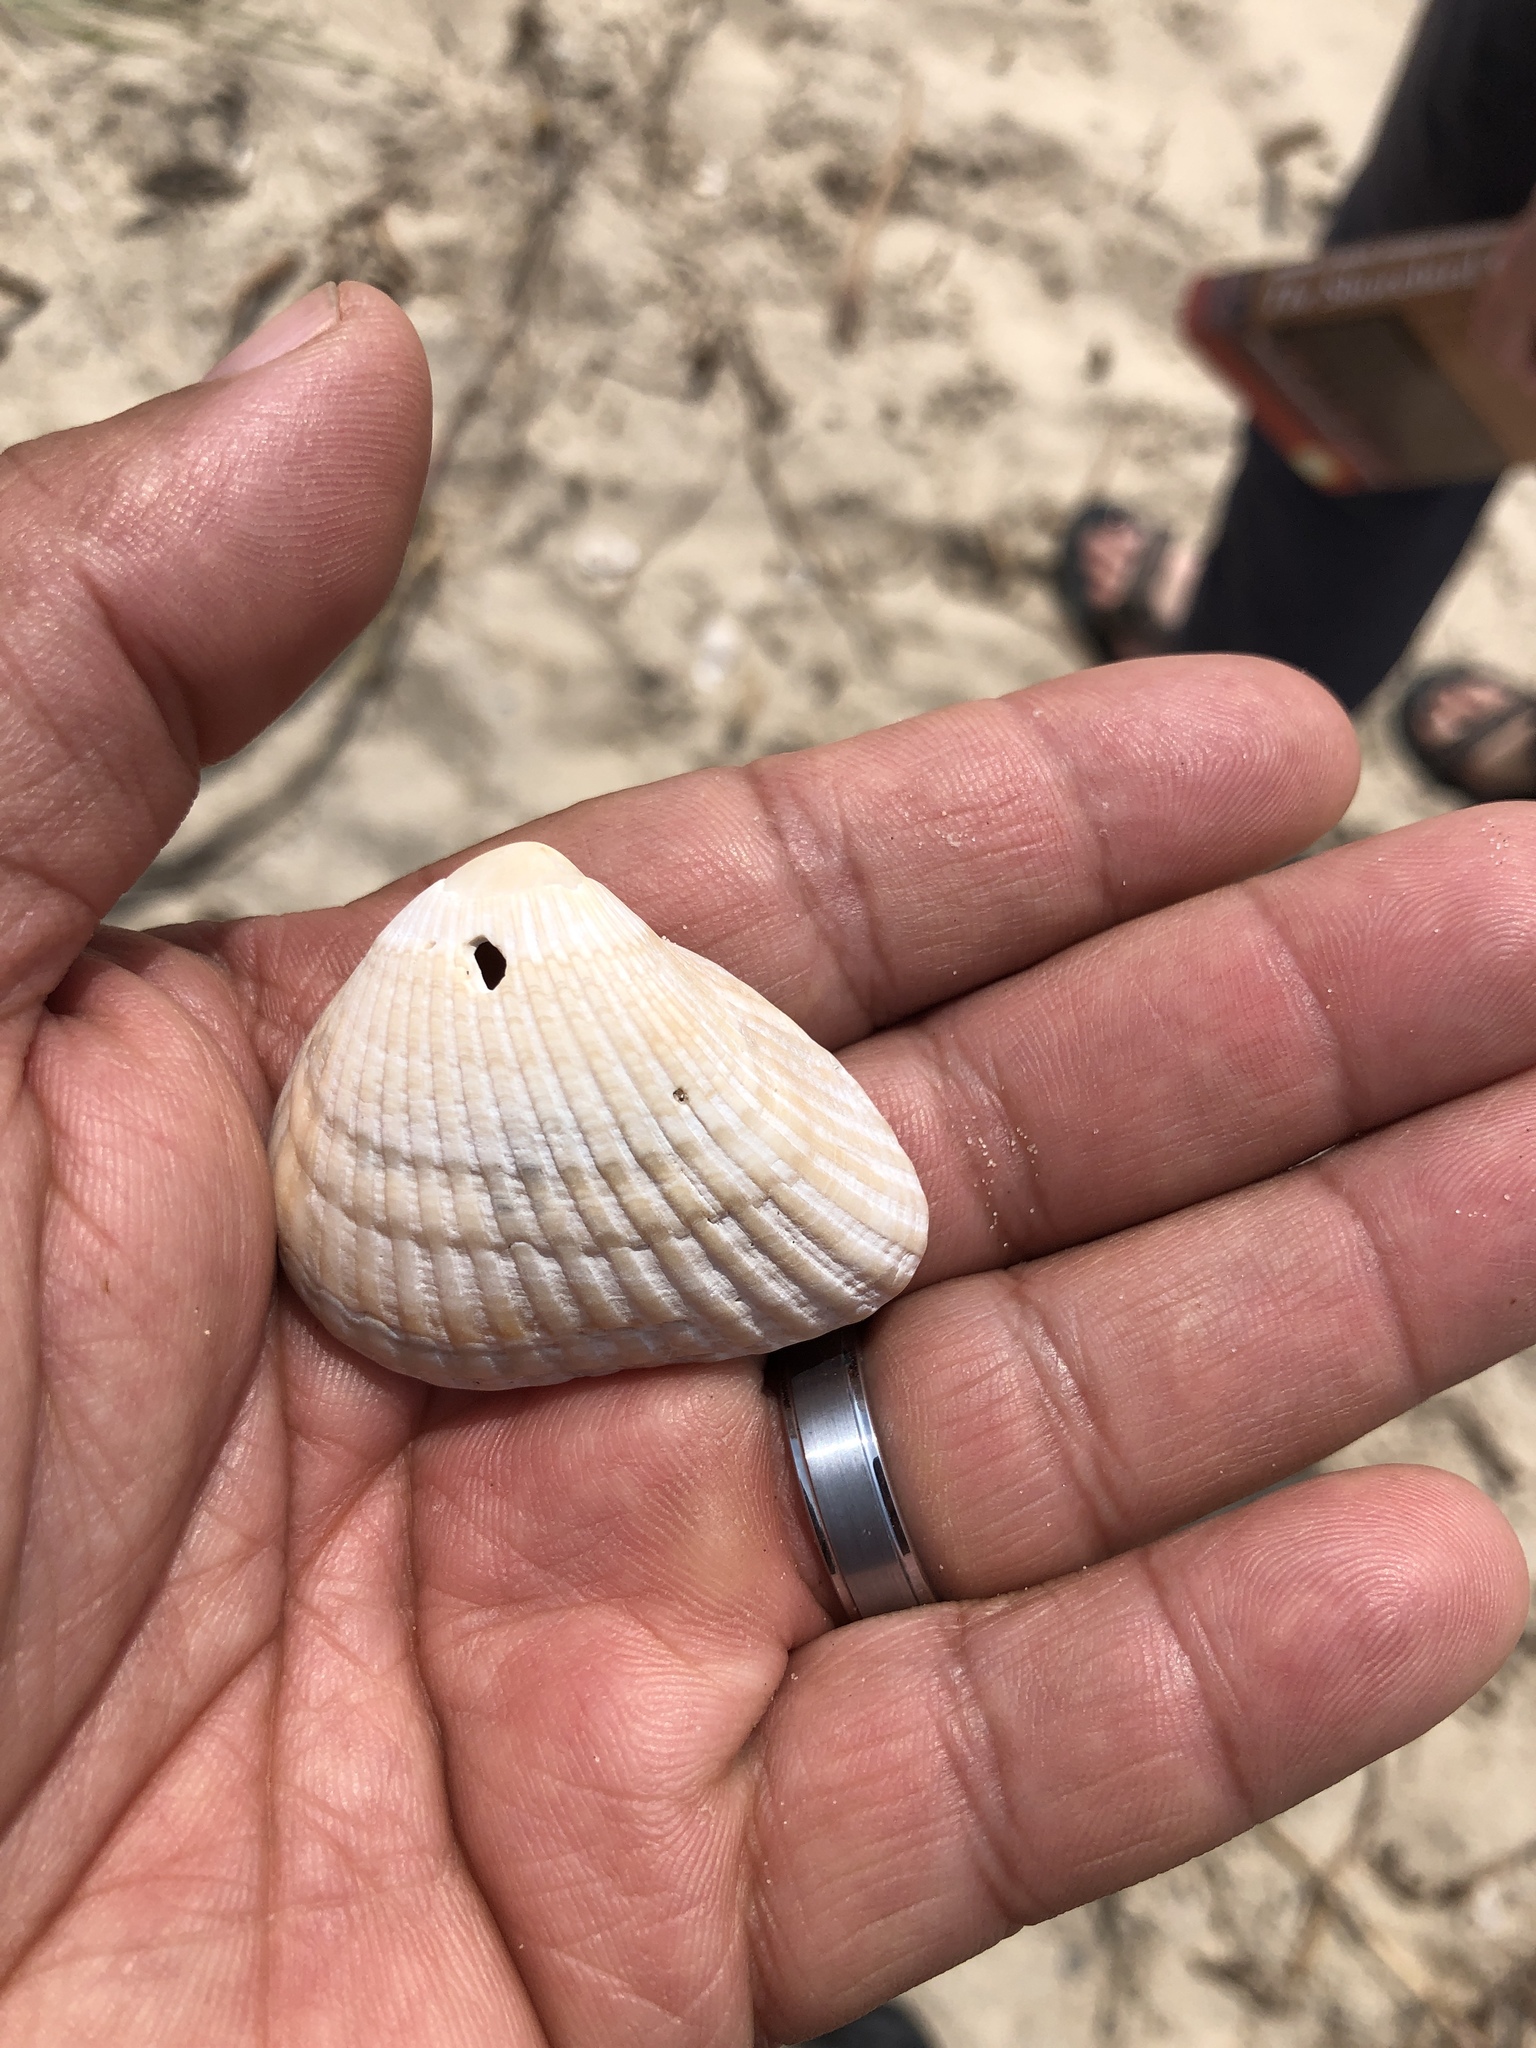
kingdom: Animalia
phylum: Mollusca
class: Bivalvia
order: Arcida
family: Noetiidae
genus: Noetia
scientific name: Noetia ponderosa
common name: Ponderous ark
